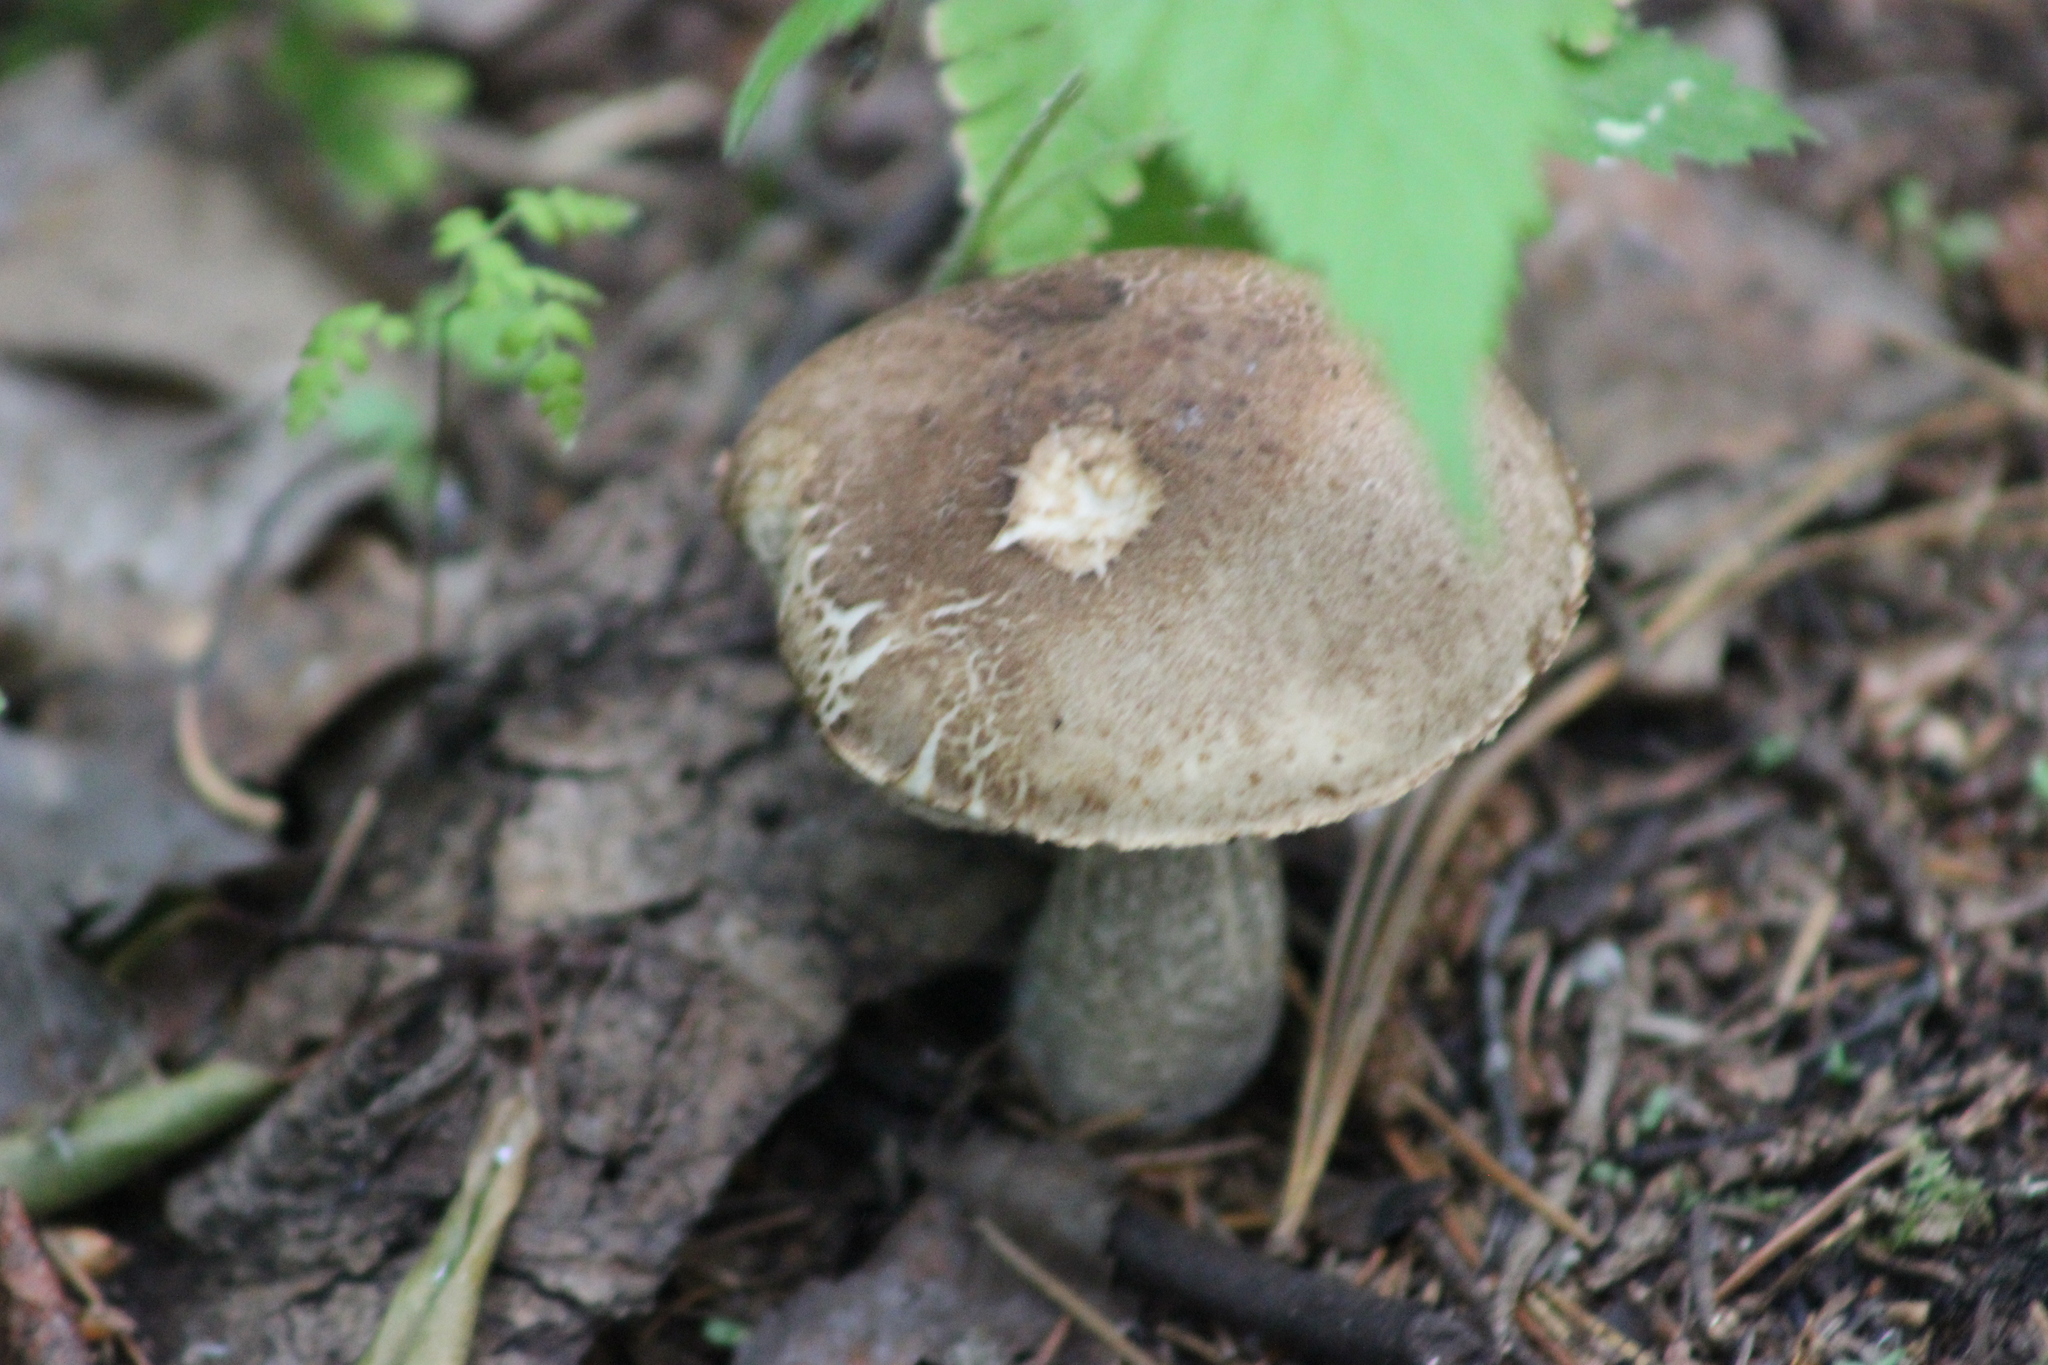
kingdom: Fungi
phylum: Basidiomycota
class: Agaricomycetes
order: Boletales
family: Boletaceae
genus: Leccinum
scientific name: Leccinum scabrum
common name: Blushing bolete
